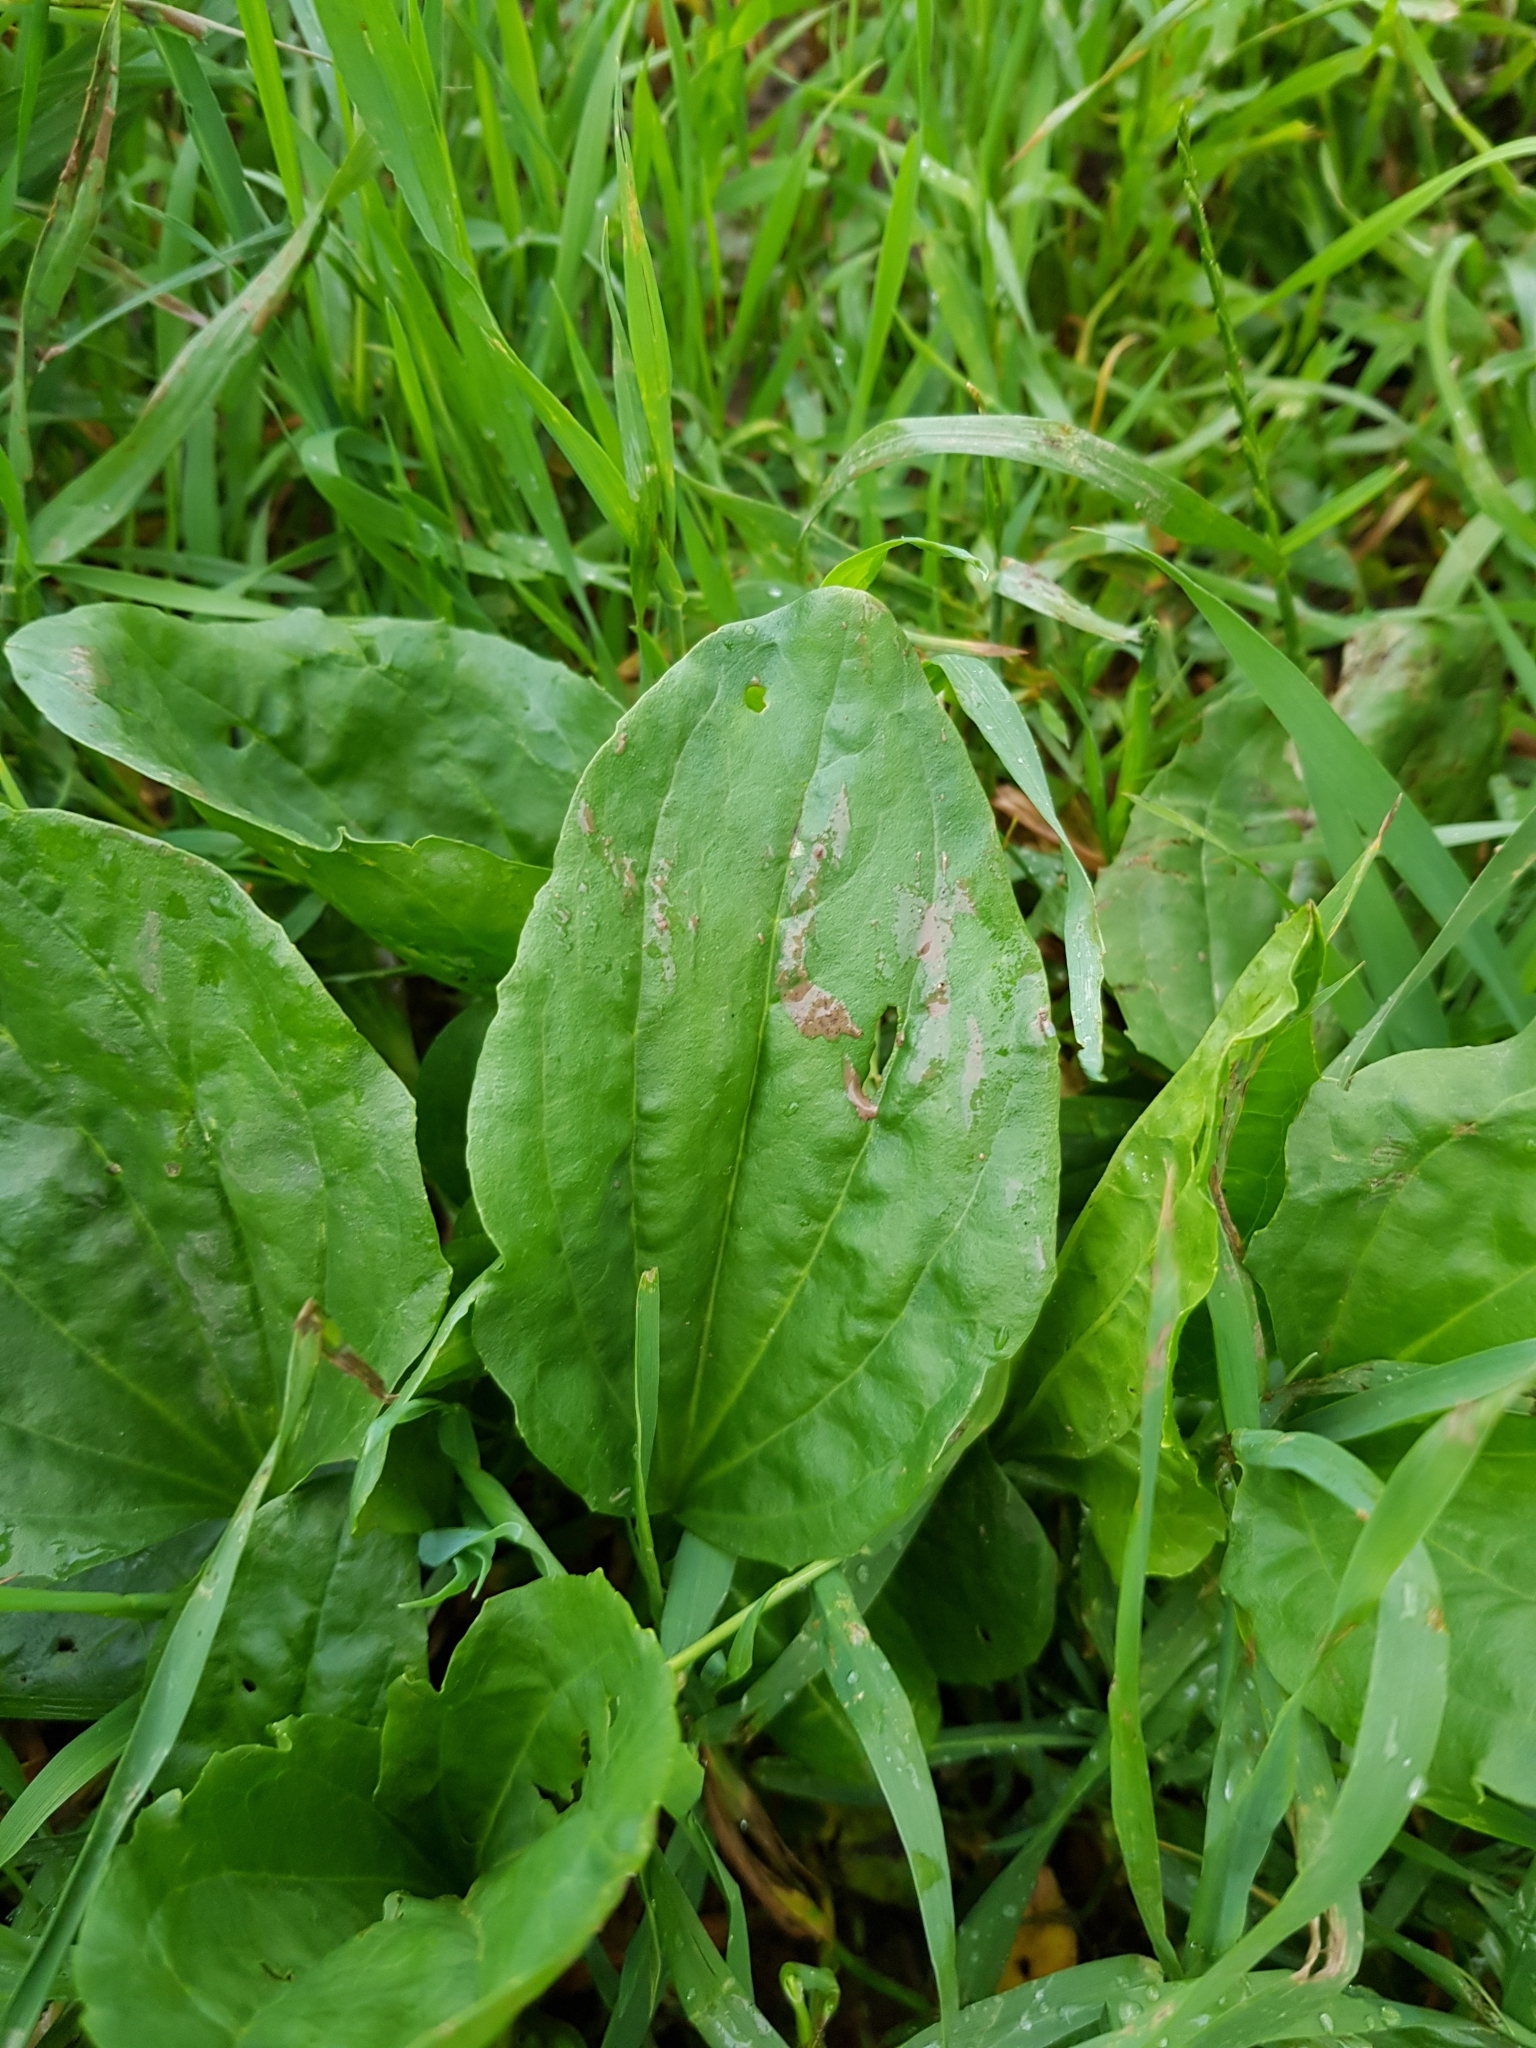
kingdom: Plantae
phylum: Tracheophyta
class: Magnoliopsida
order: Lamiales
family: Plantaginaceae
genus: Plantago
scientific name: Plantago major
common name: Common plantain
